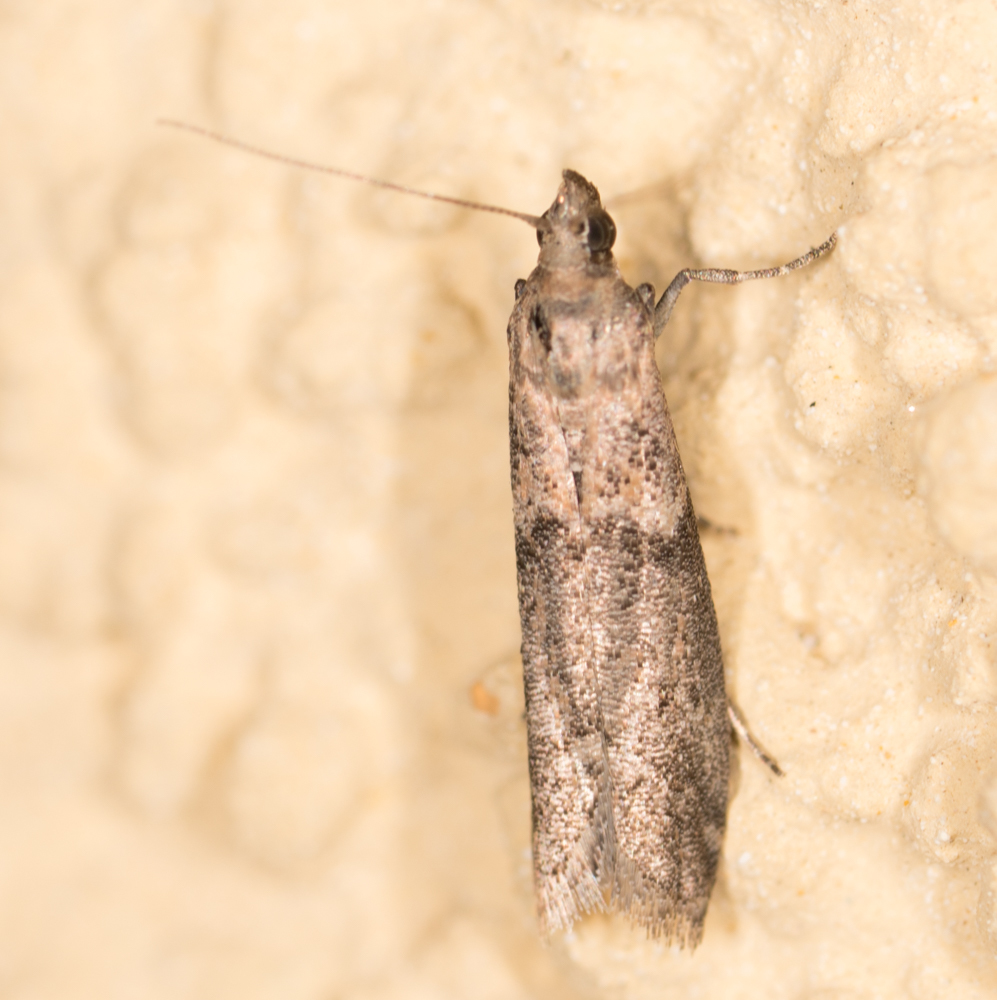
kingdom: Animalia
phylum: Arthropoda
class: Insecta
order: Lepidoptera
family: Pyralidae
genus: Ephestiodes
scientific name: Ephestiodes gilvescentella
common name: Moth
